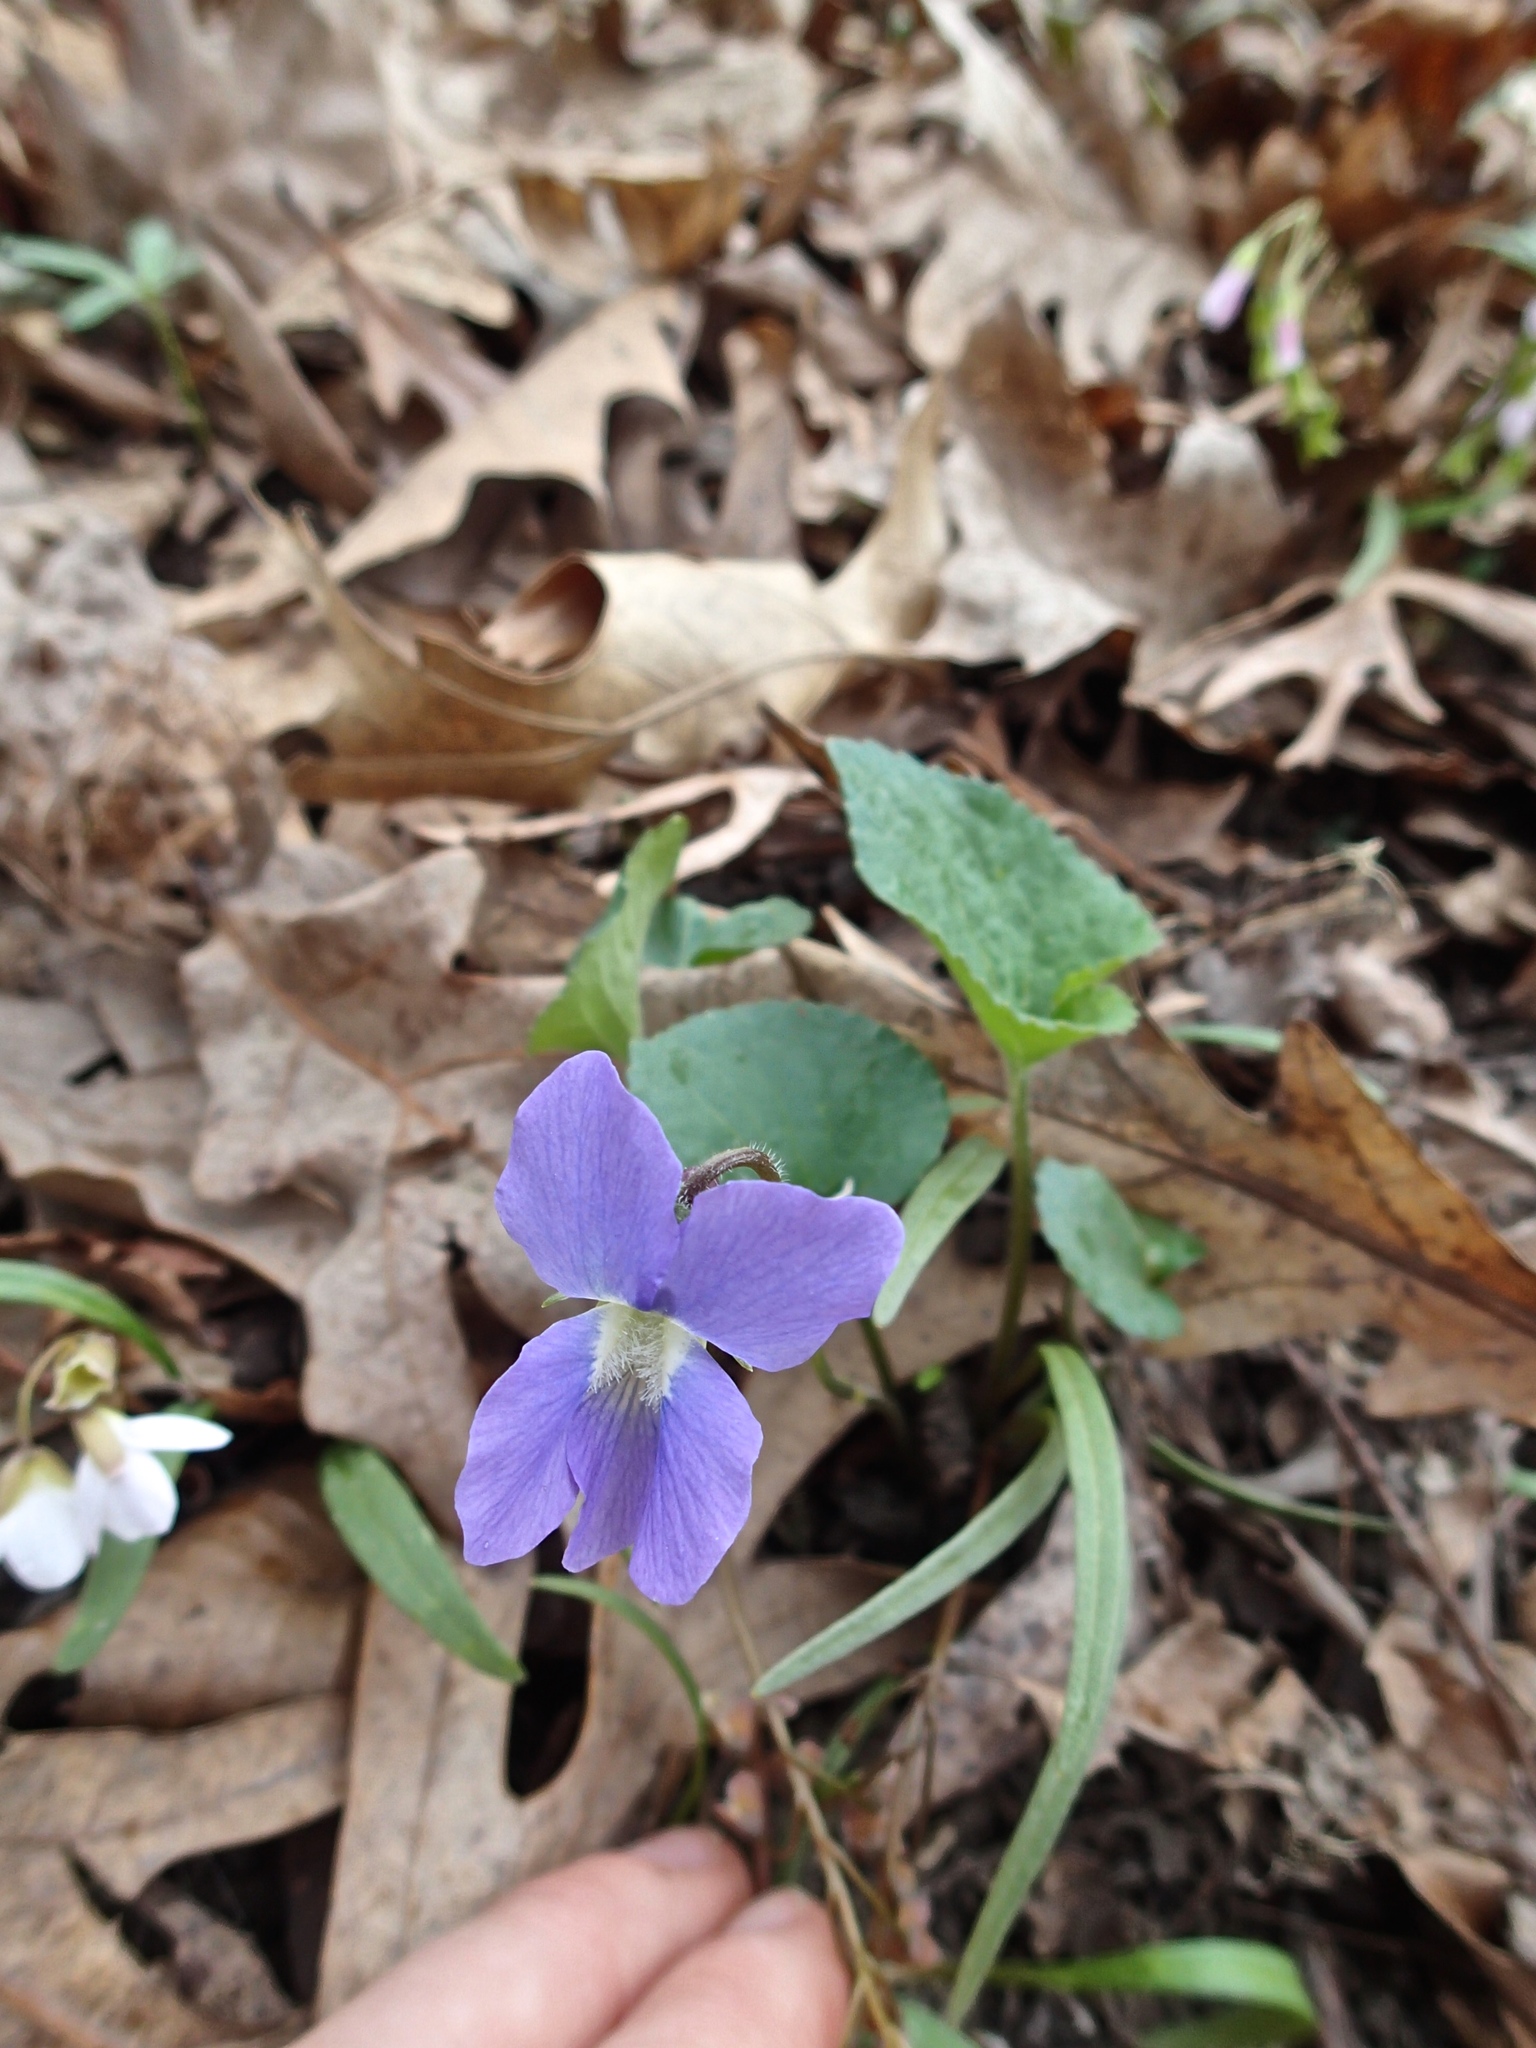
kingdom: Plantae
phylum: Tracheophyta
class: Magnoliopsida
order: Malpighiales
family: Violaceae
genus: Viola
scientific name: Viola sororia
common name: Dooryard violet
